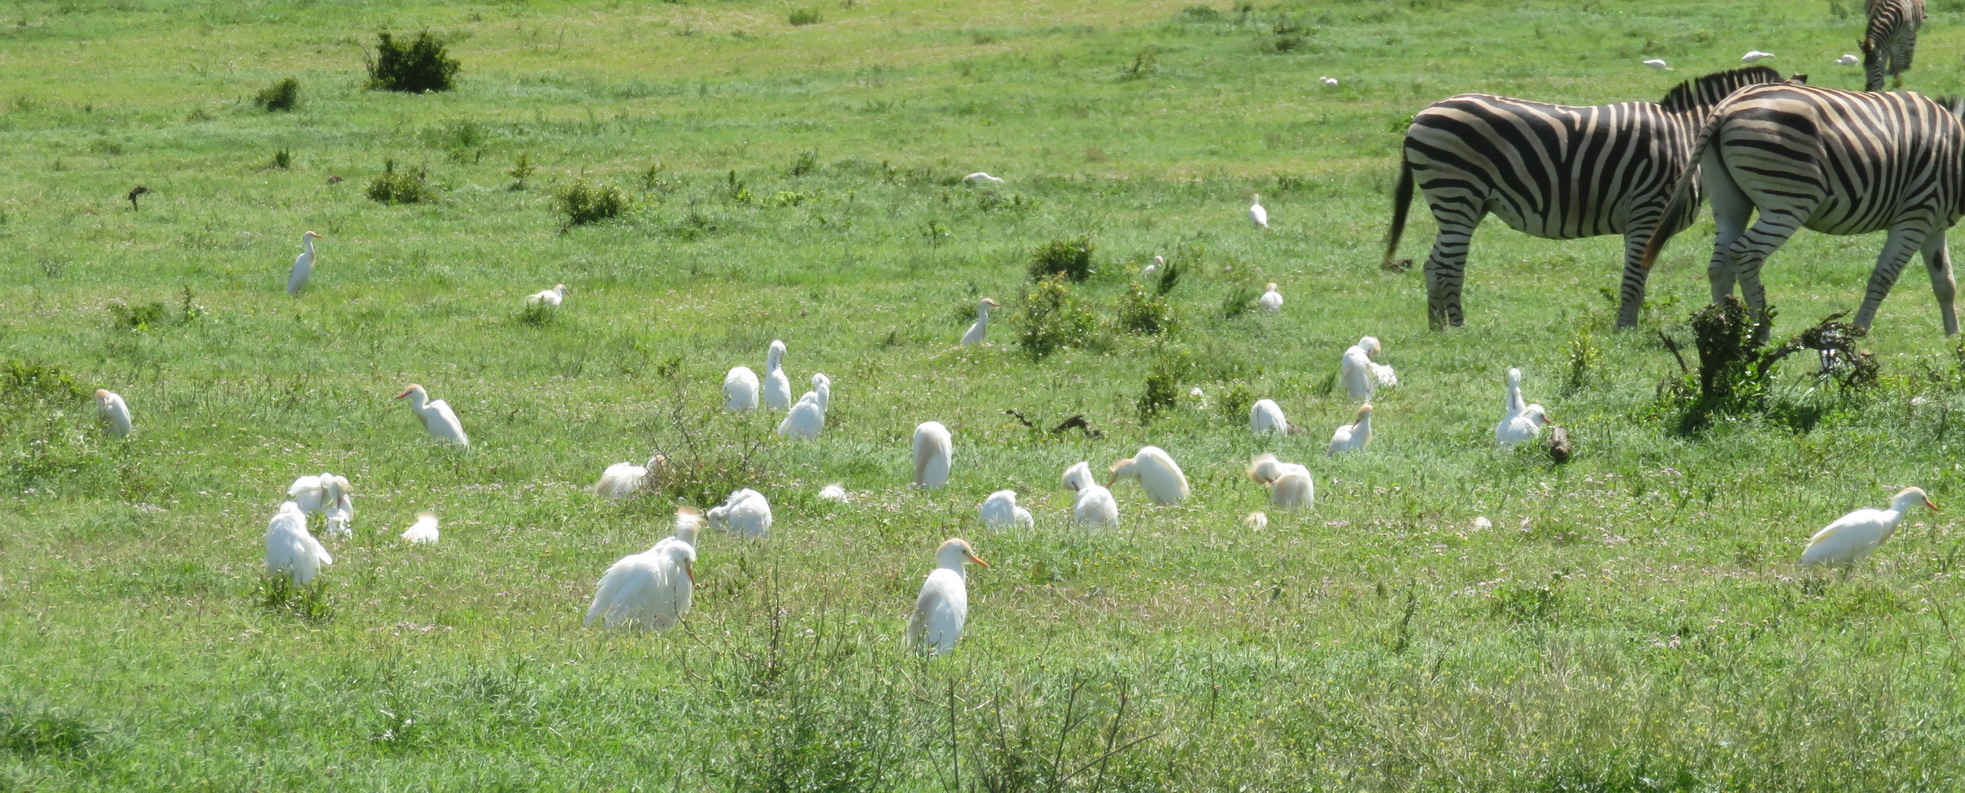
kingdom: Animalia
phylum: Chordata
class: Aves
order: Pelecaniformes
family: Ardeidae
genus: Bubulcus
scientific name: Bubulcus ibis
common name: Cattle egret
